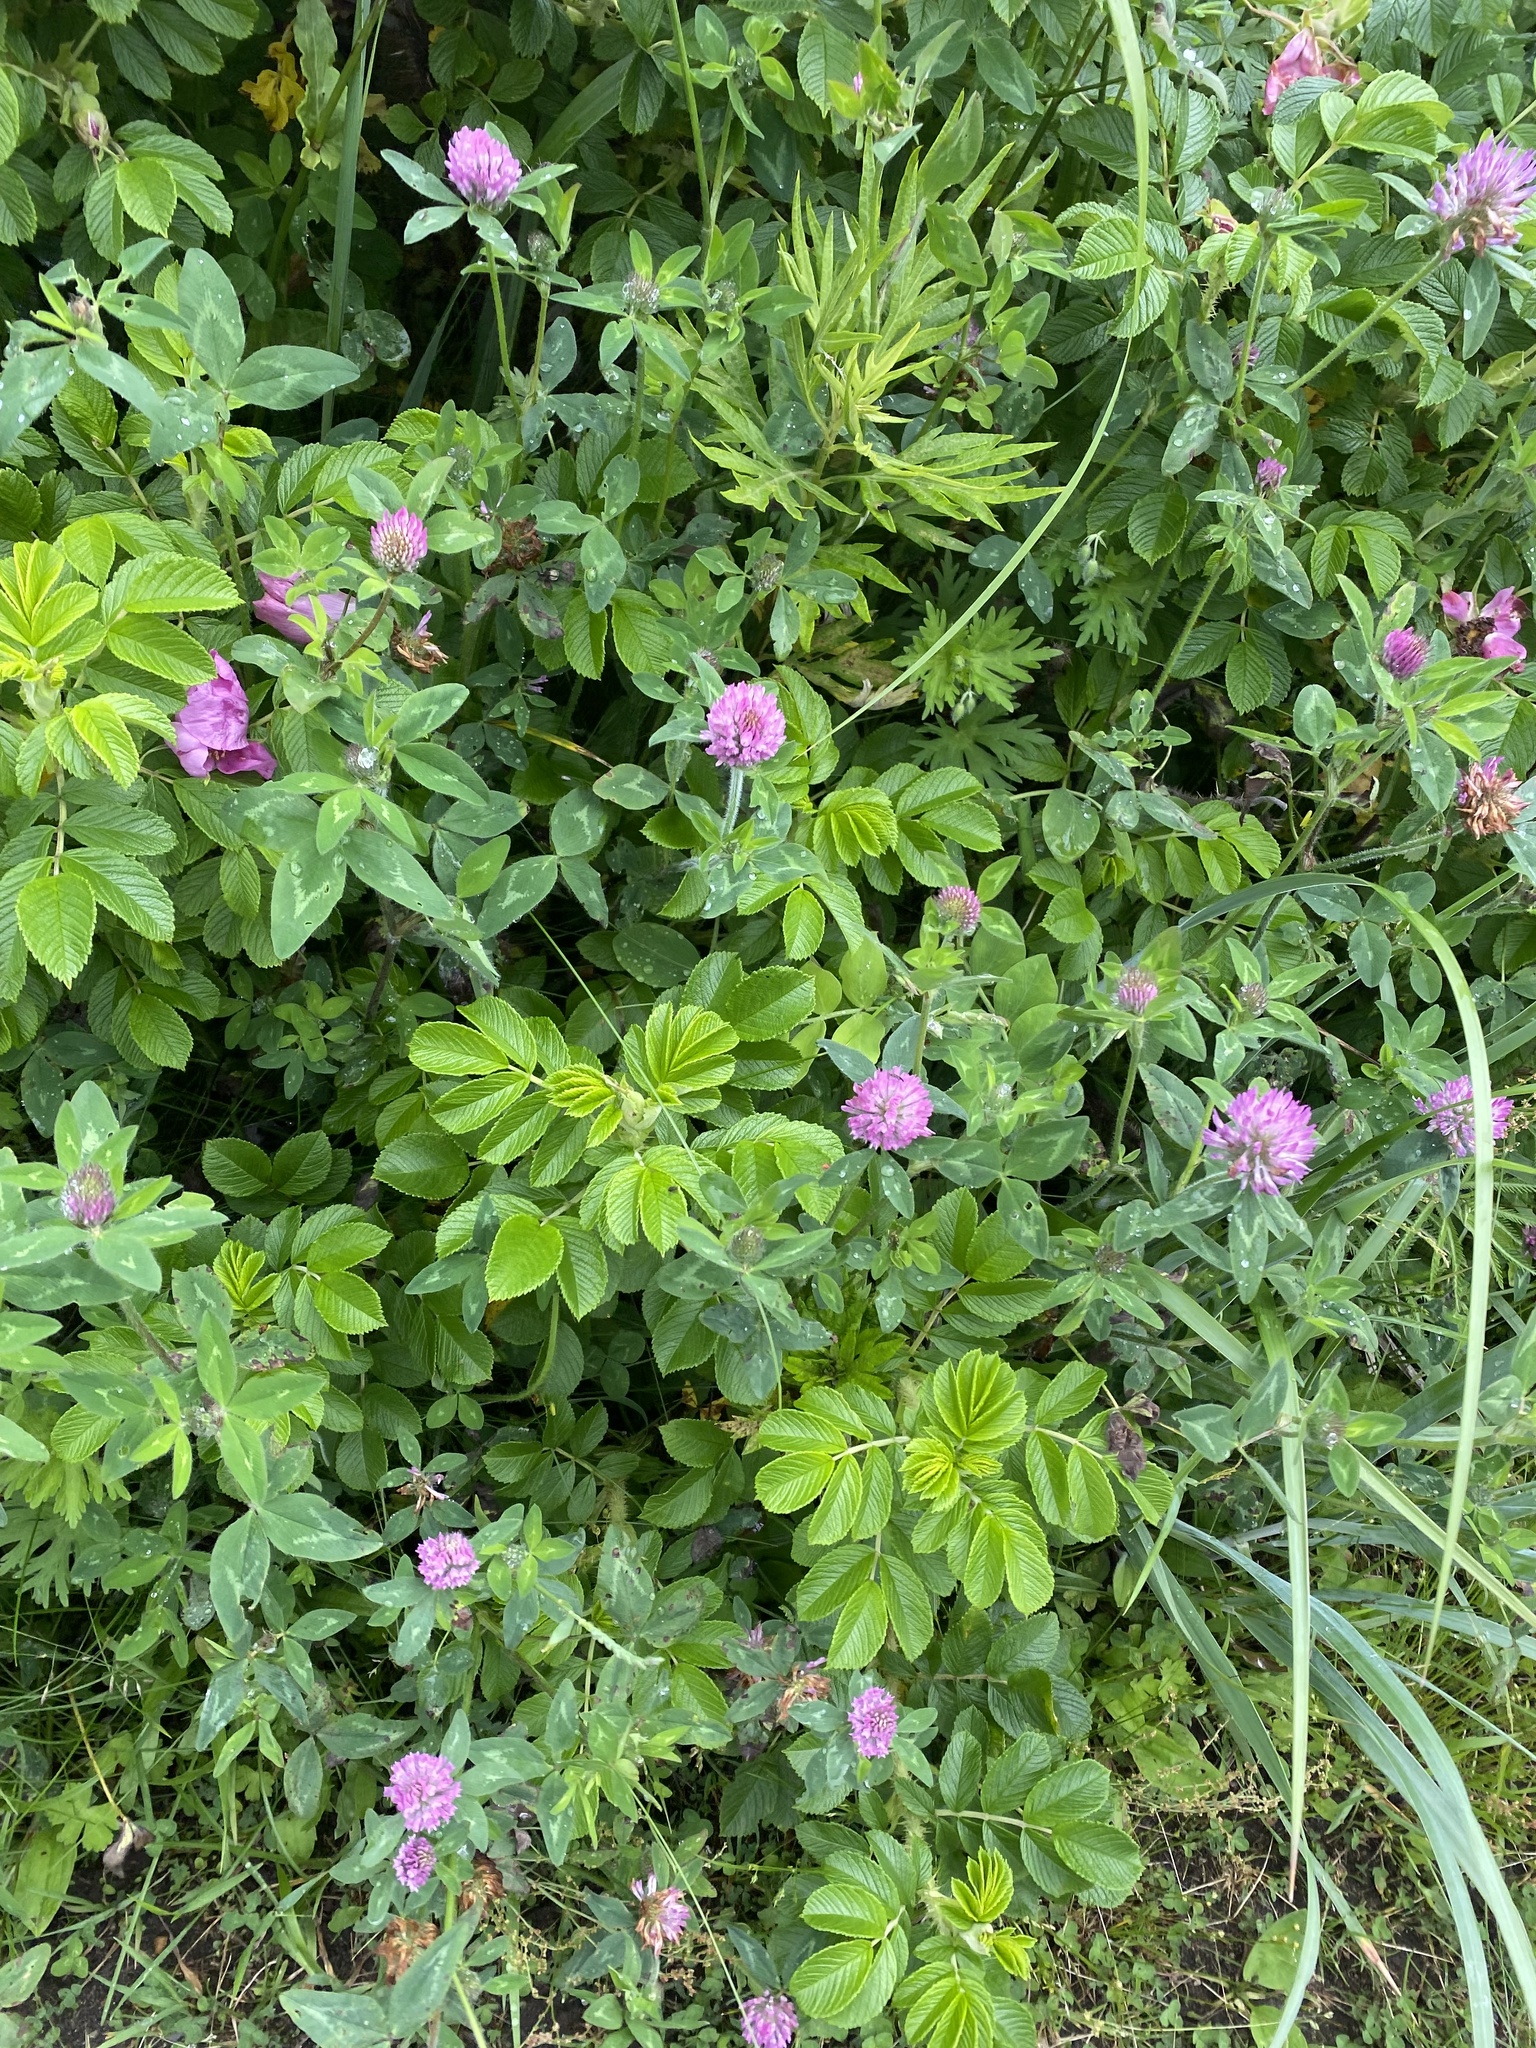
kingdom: Plantae
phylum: Tracheophyta
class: Magnoliopsida
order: Fabales
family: Fabaceae
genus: Trifolium
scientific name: Trifolium pratense
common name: Red clover
